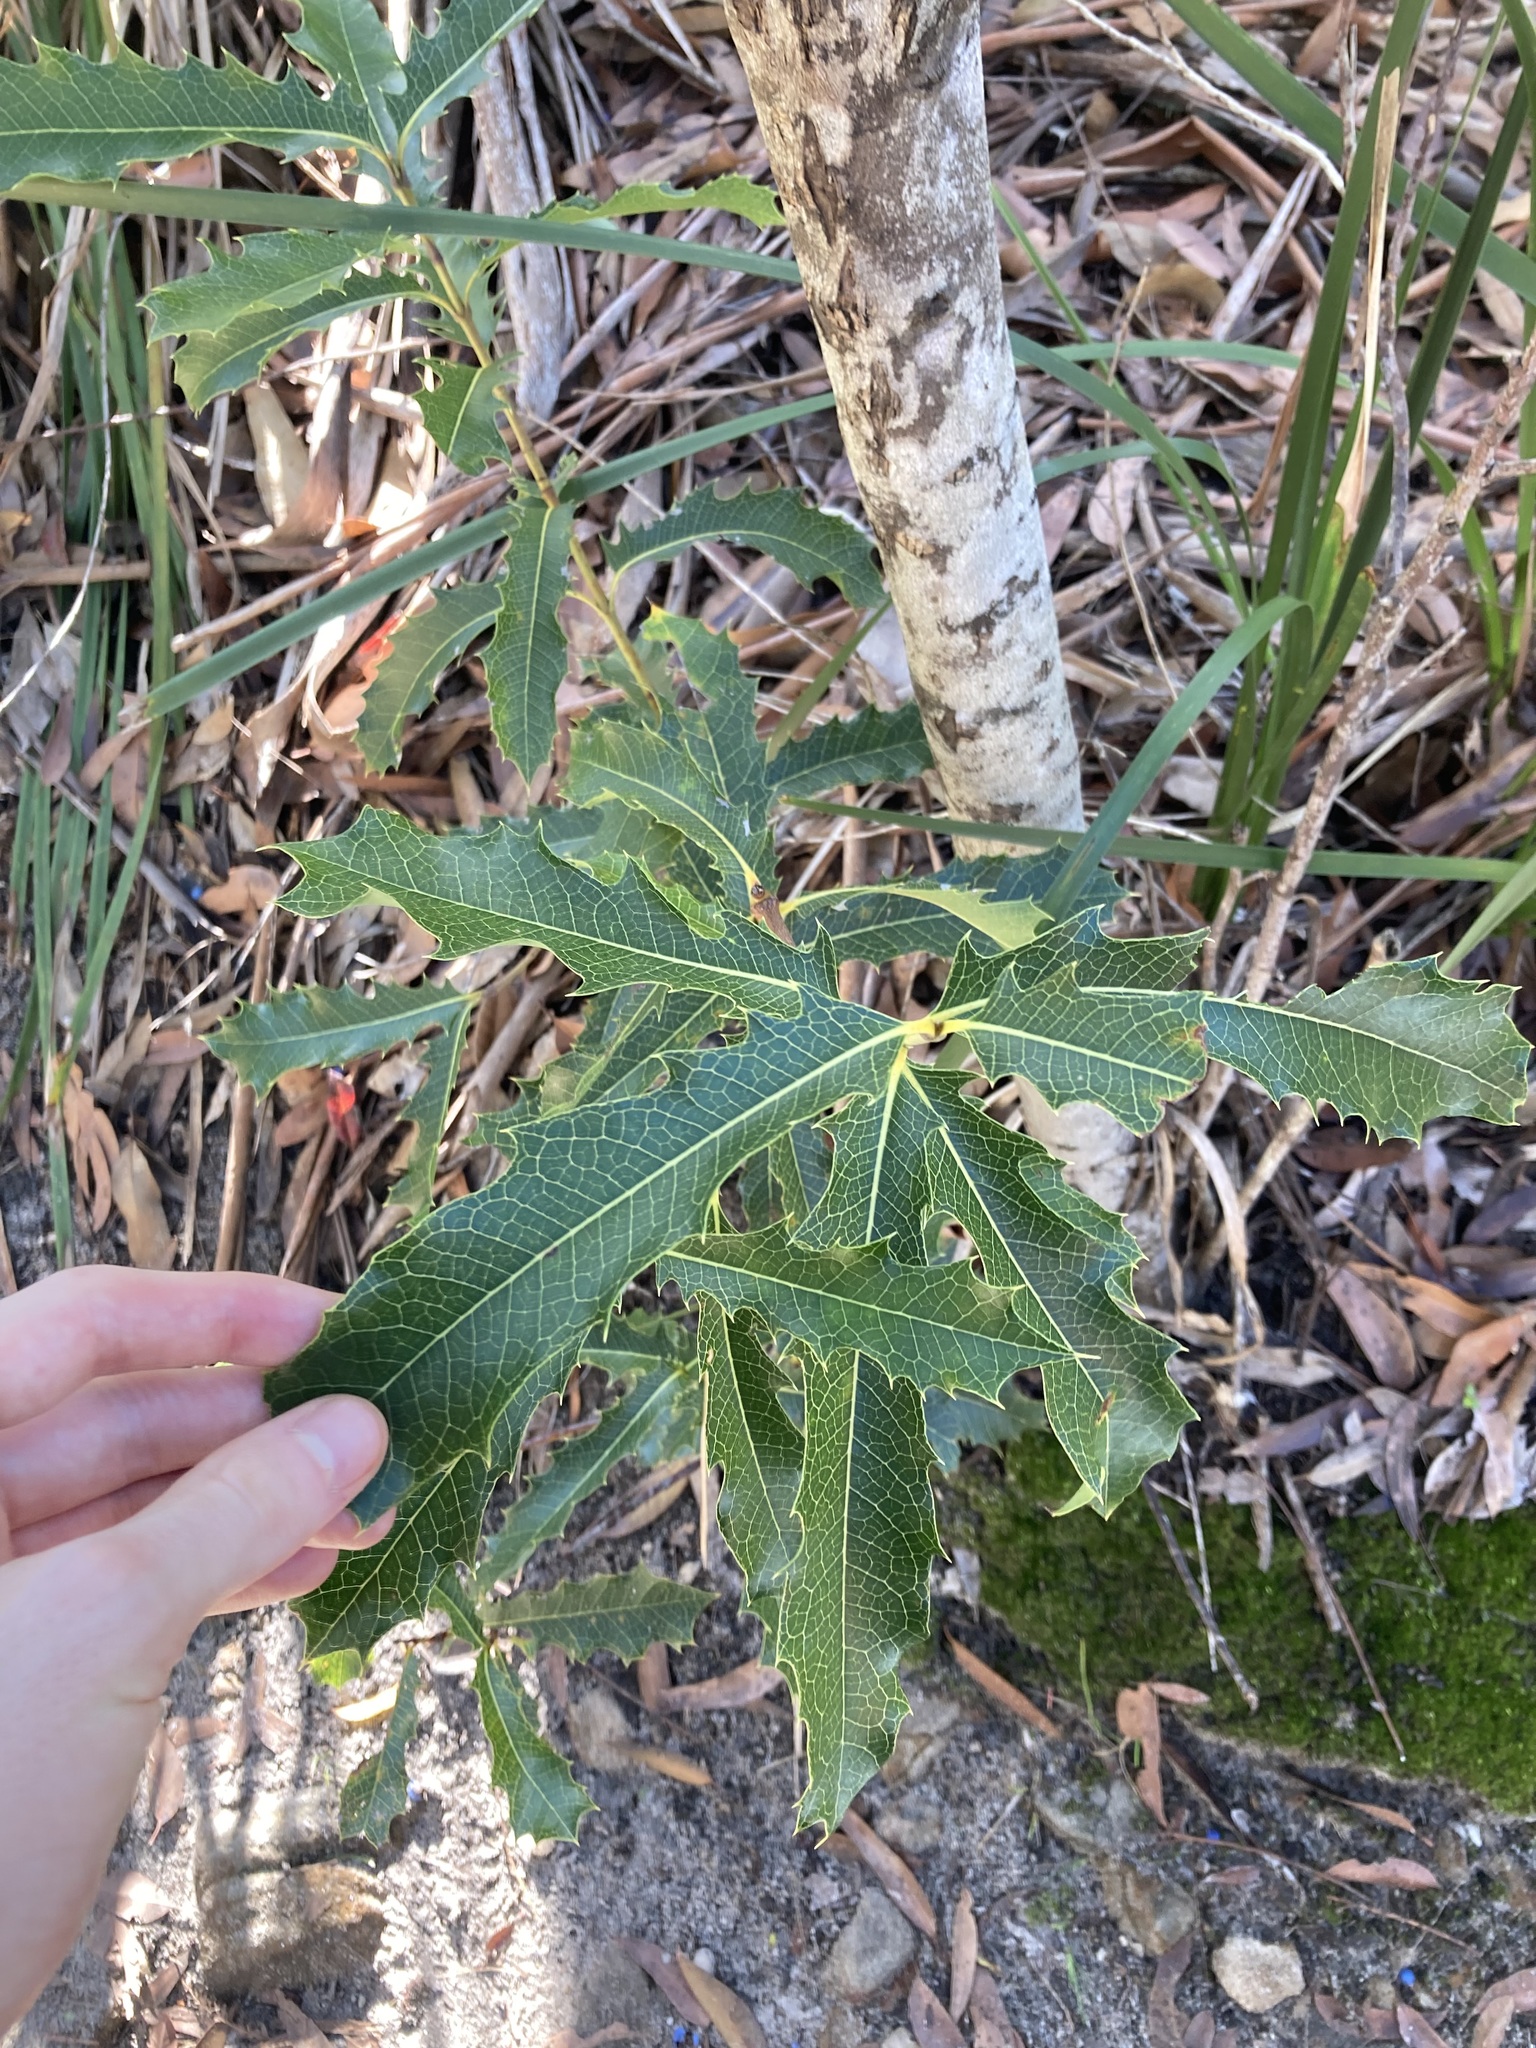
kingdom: Plantae
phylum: Tracheophyta
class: Magnoliopsida
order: Proteales
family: Proteaceae
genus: Xylomelum
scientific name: Xylomelum pyriforme
